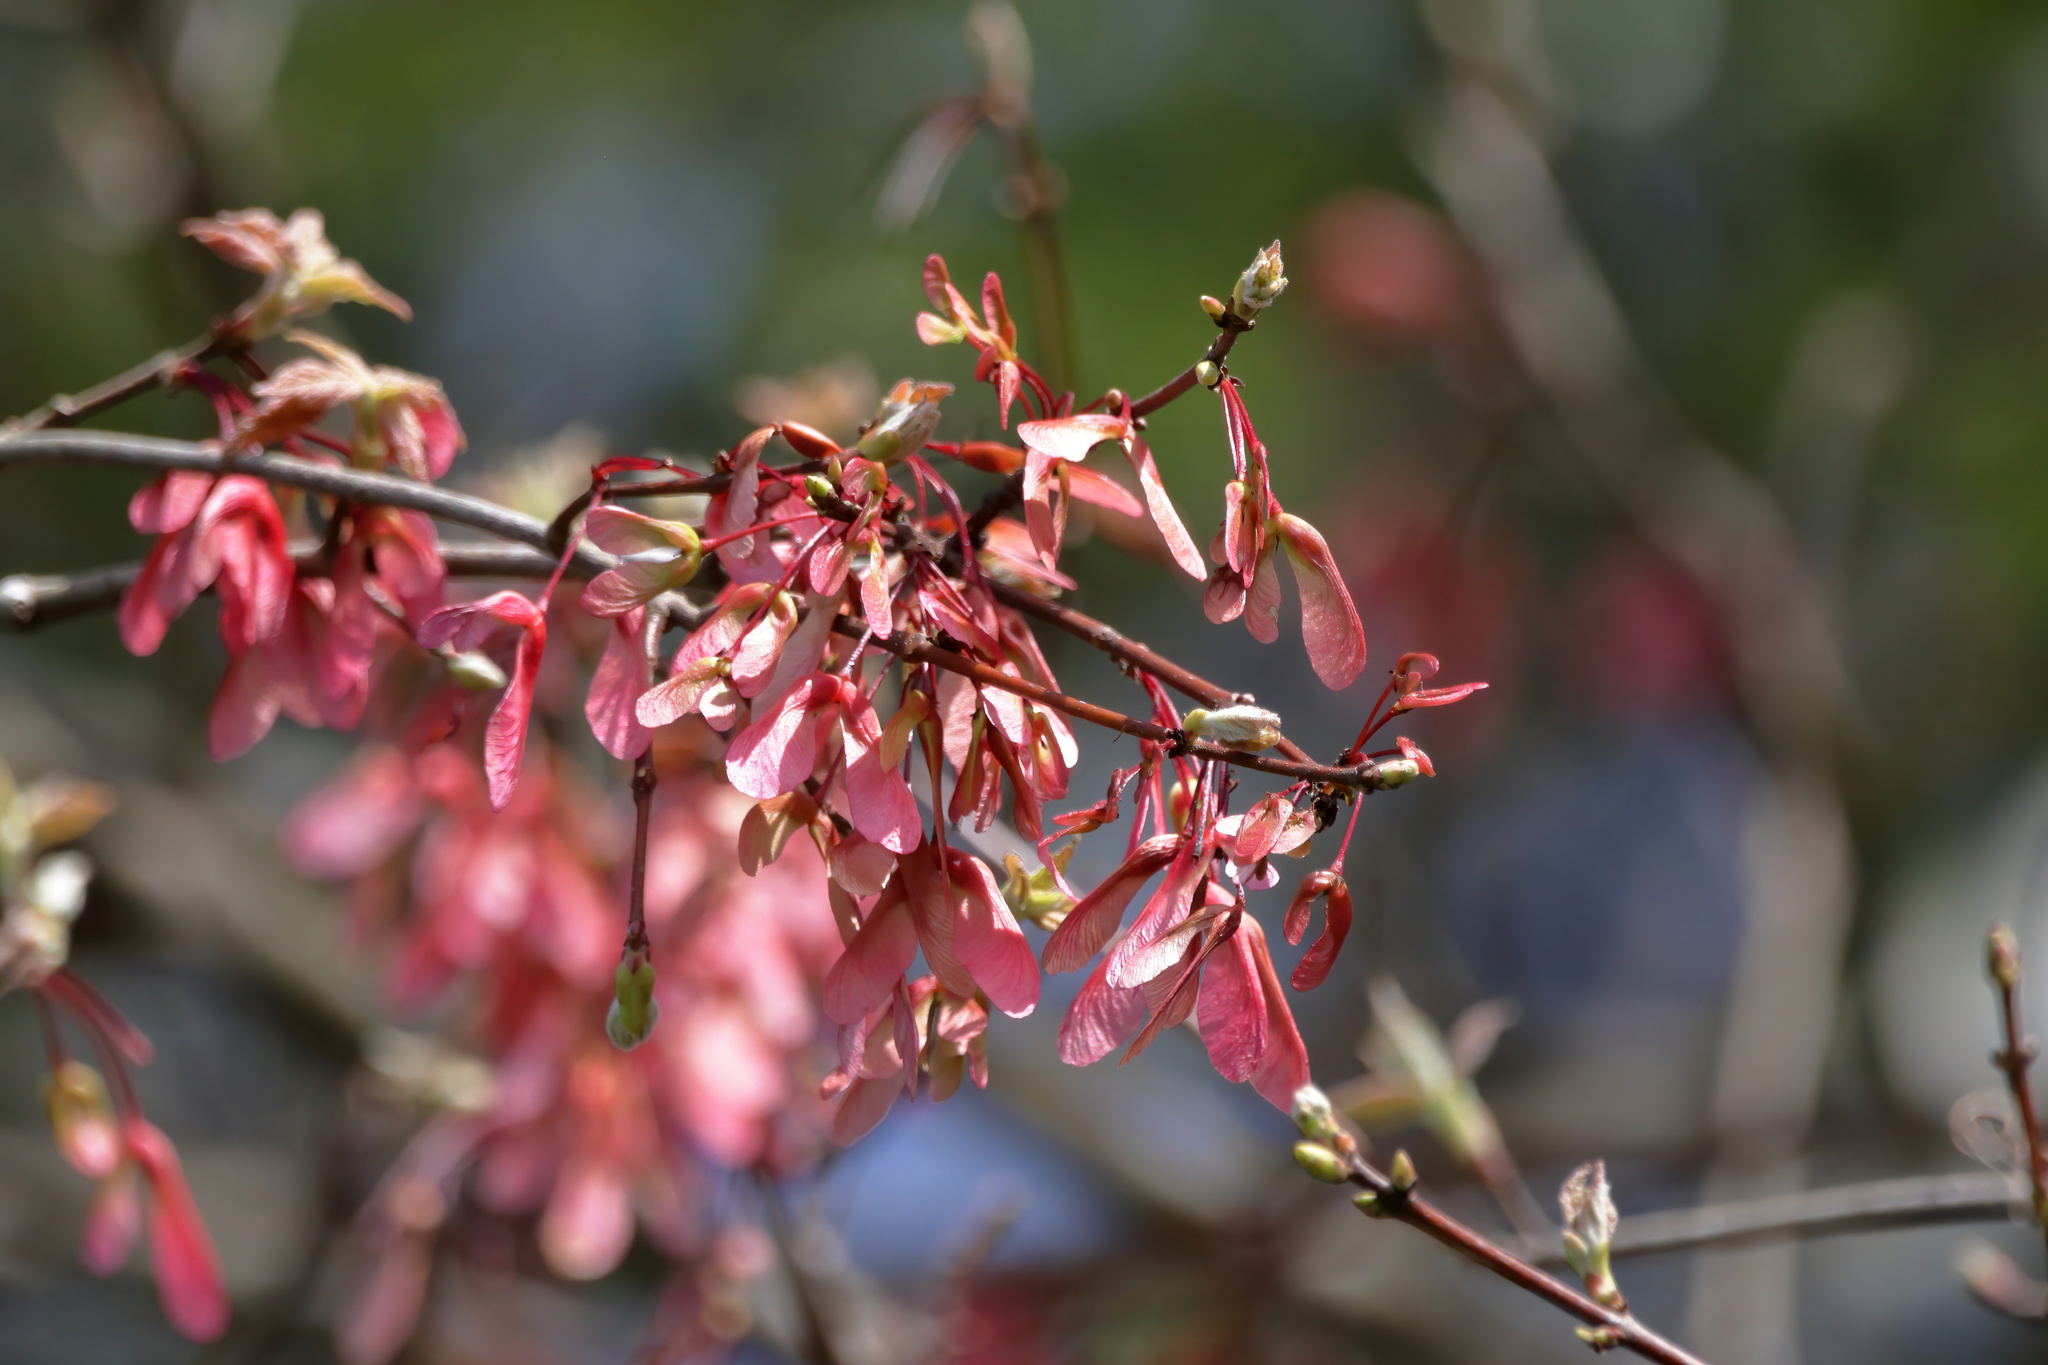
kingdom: Plantae
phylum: Tracheophyta
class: Magnoliopsida
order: Sapindales
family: Sapindaceae
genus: Acer
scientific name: Acer rubrum
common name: Red maple
